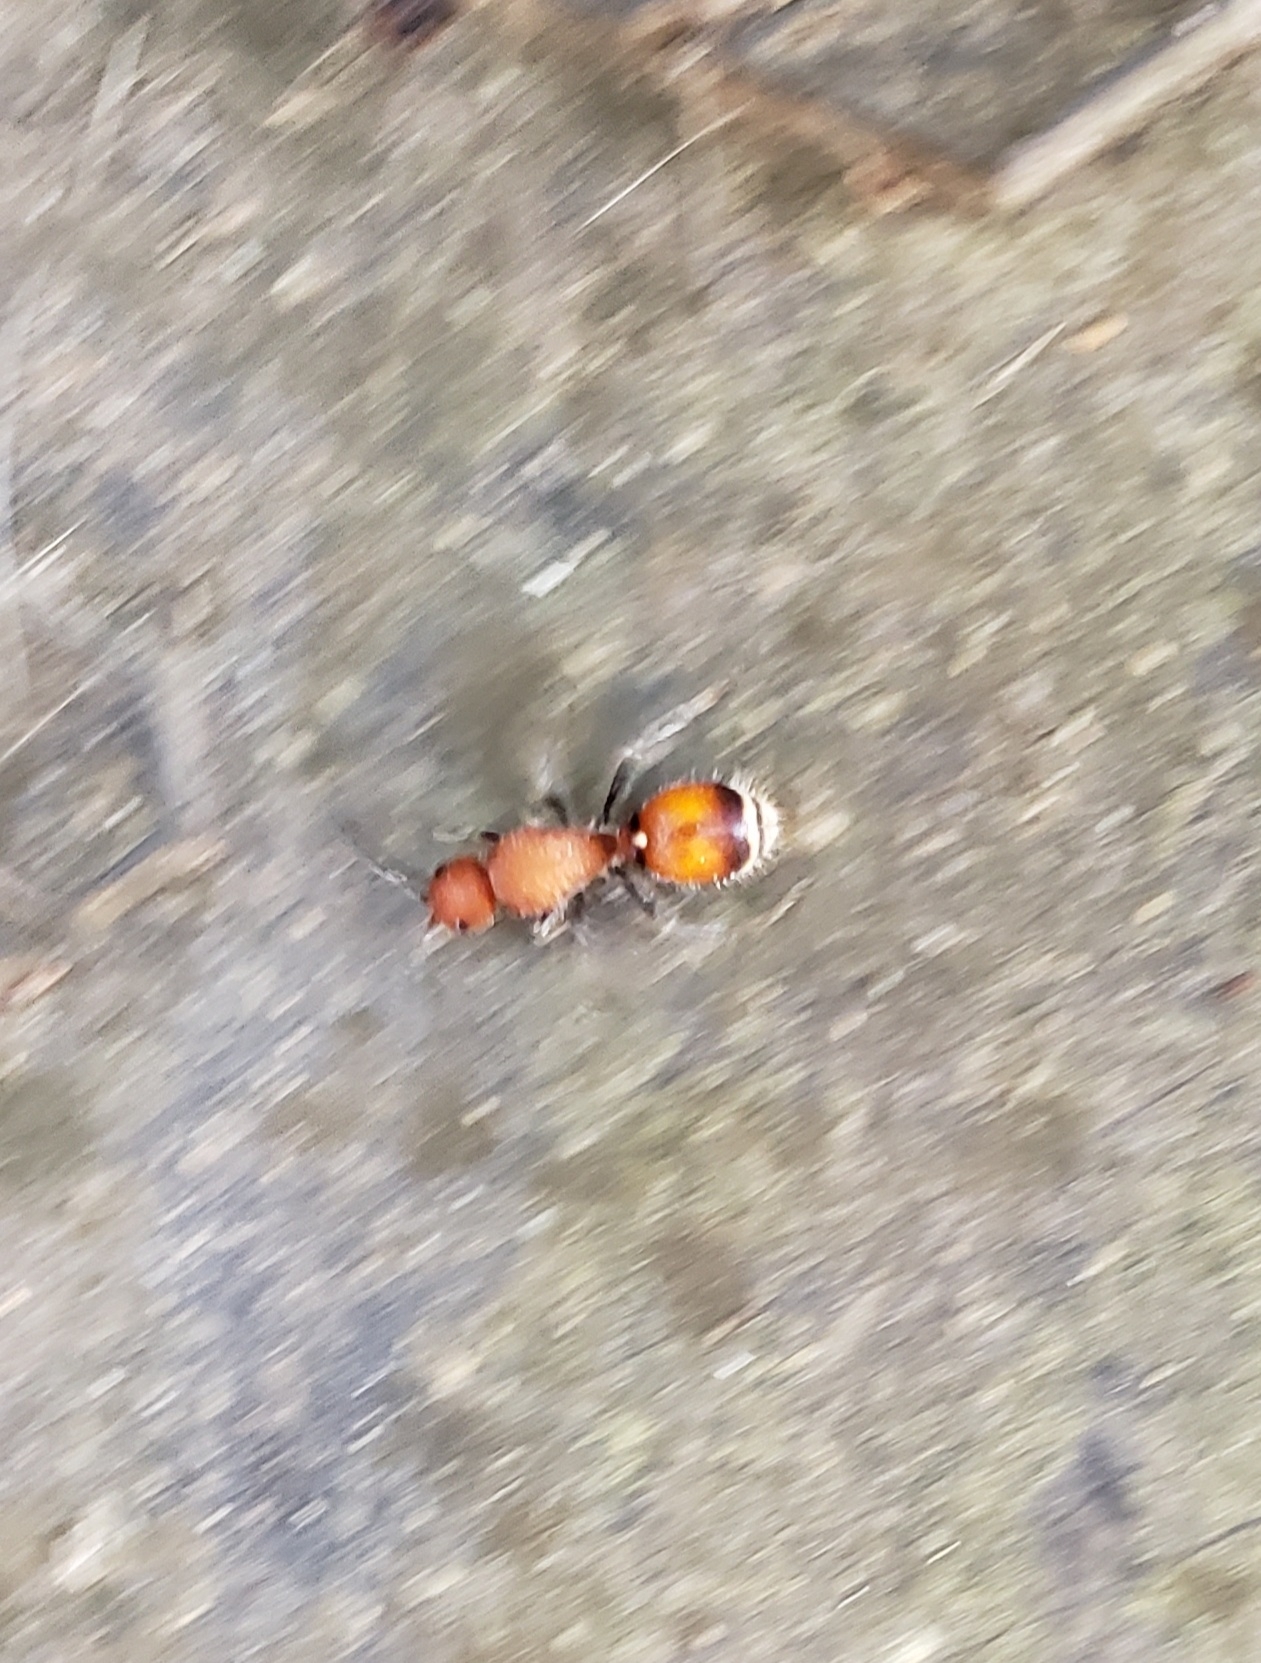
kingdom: Animalia
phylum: Arthropoda
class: Insecta
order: Hymenoptera
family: Mutillidae
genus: Sphaeropthalma
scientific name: Sphaeropthalma
